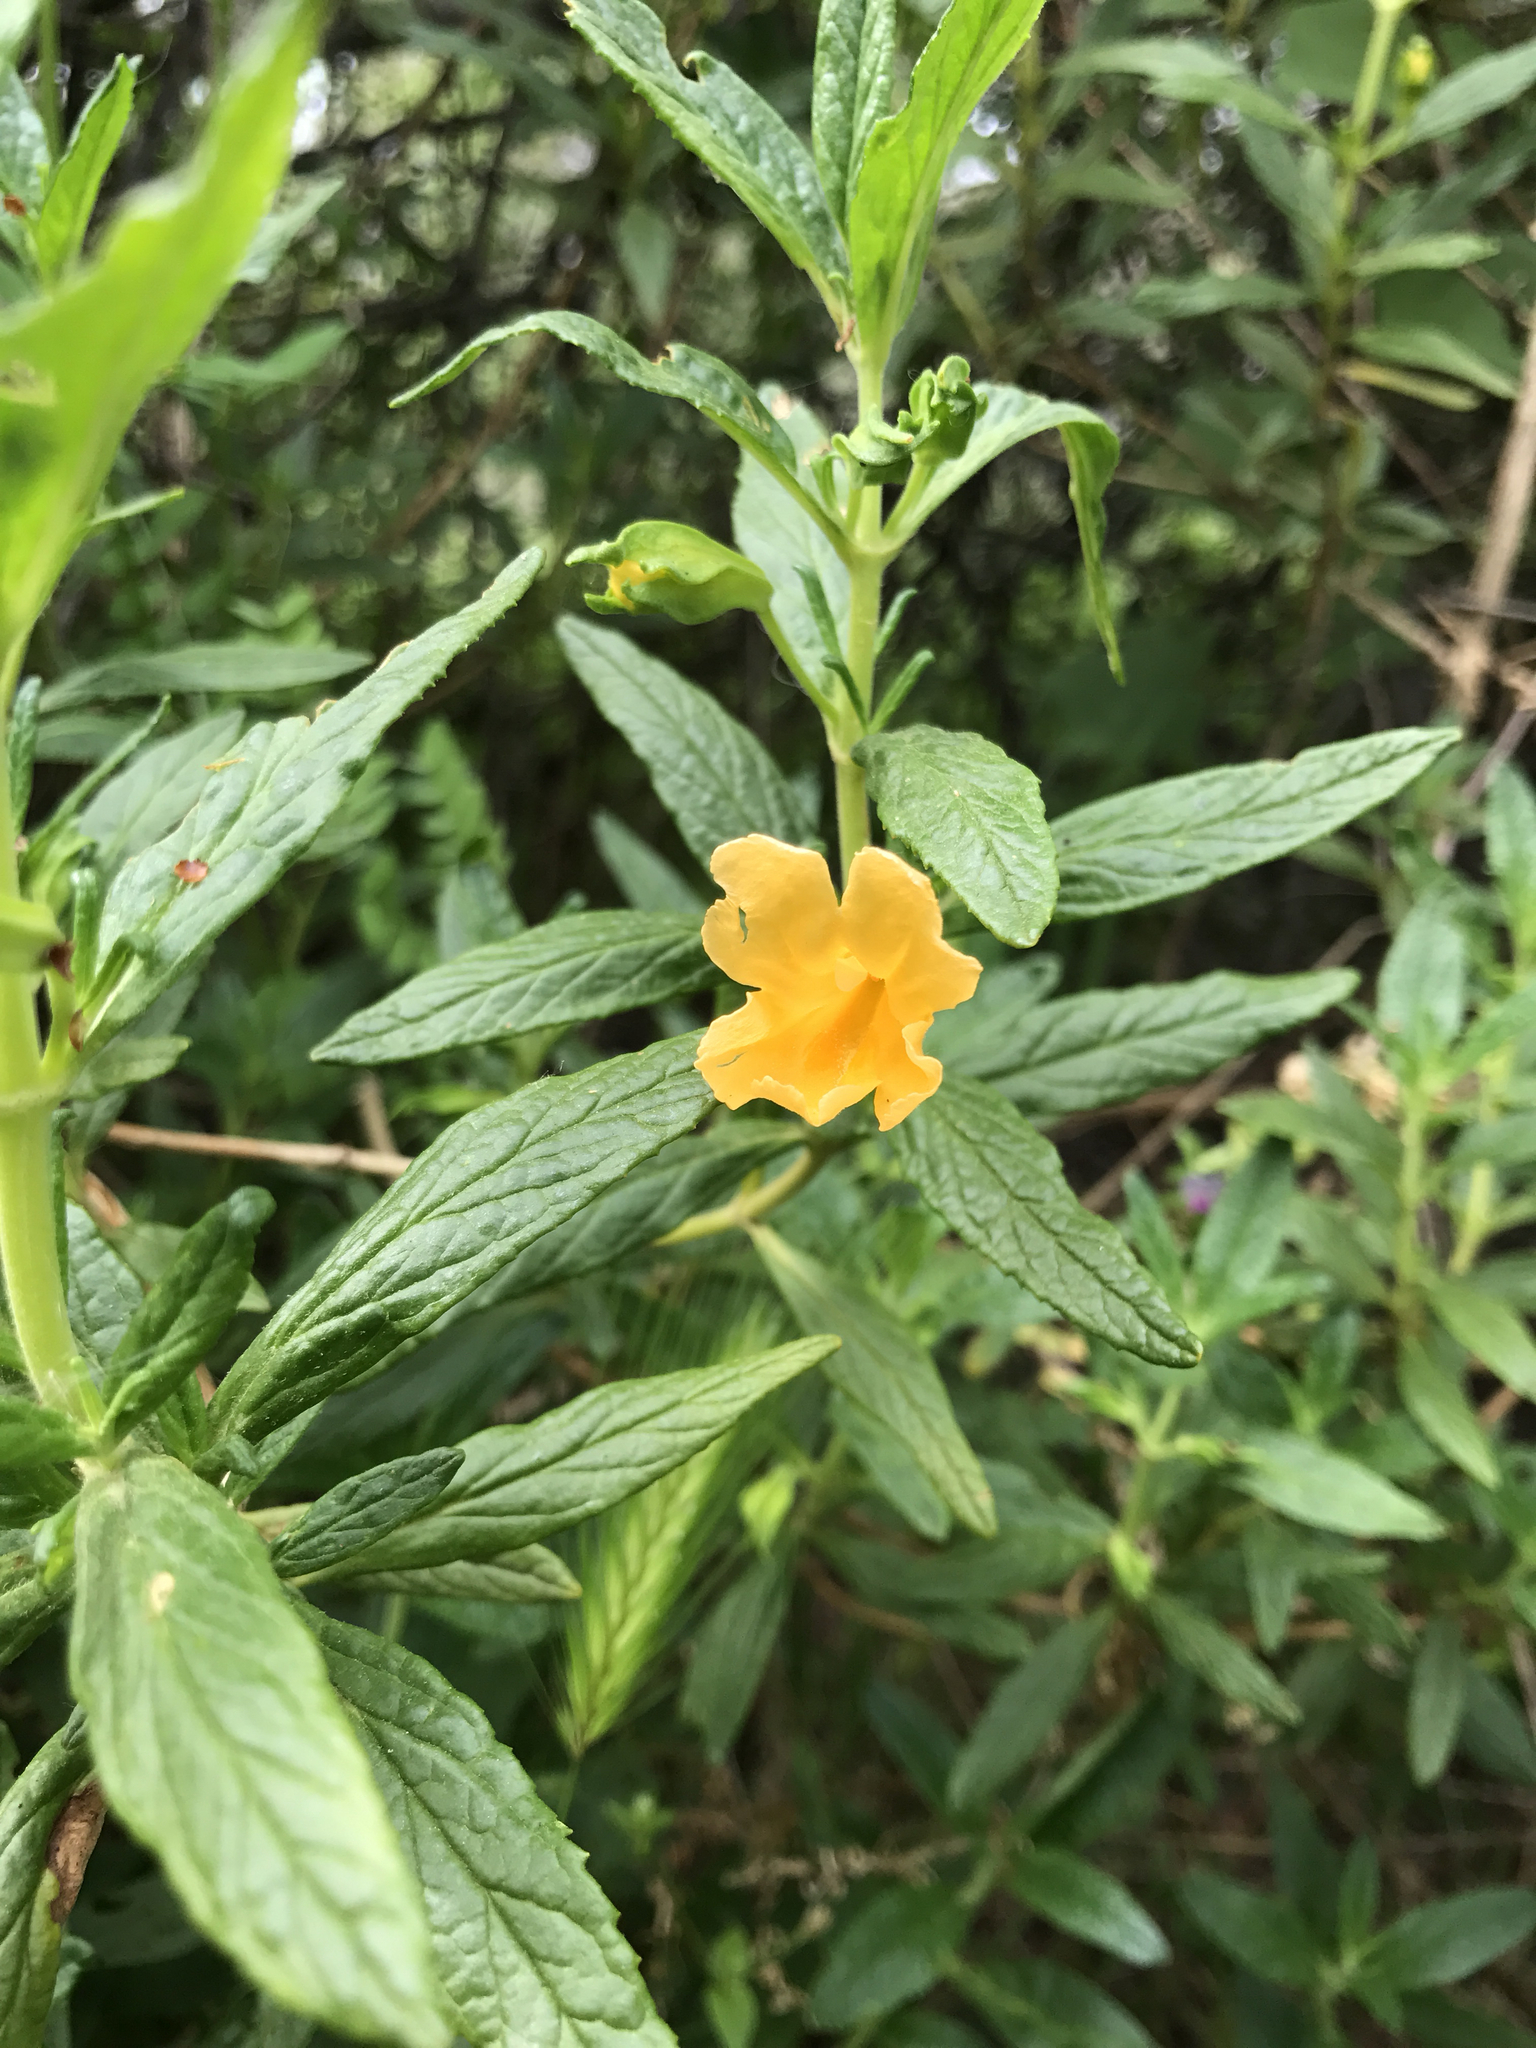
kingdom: Plantae
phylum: Tracheophyta
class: Magnoliopsida
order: Lamiales
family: Phrymaceae
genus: Diplacus
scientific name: Diplacus aurantiacus
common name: Bush monkey-flower
